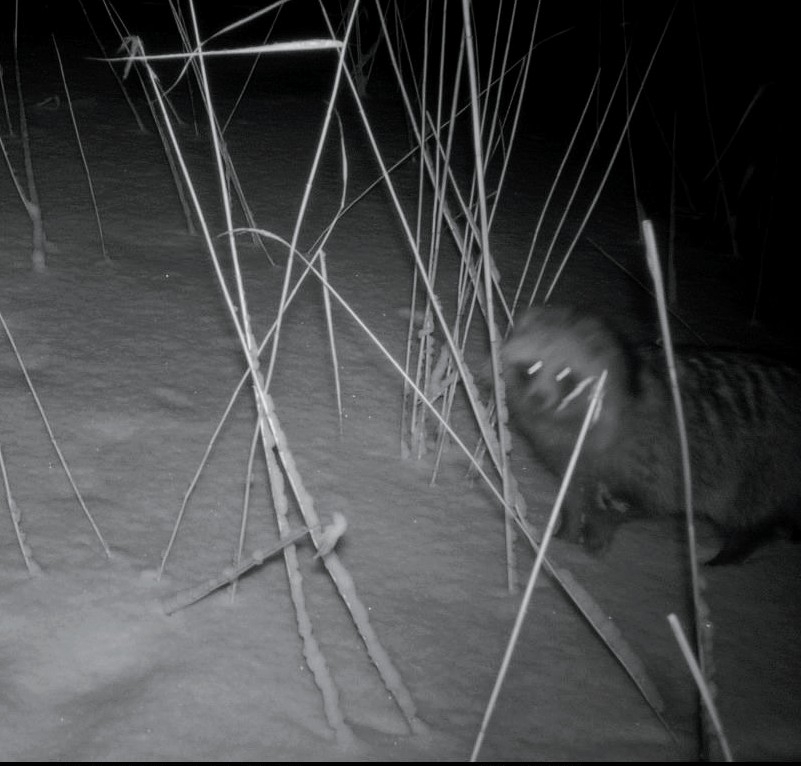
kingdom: Animalia
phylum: Chordata
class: Mammalia
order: Carnivora
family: Canidae
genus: Nyctereutes
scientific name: Nyctereutes procyonoides
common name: Raccoon dog
